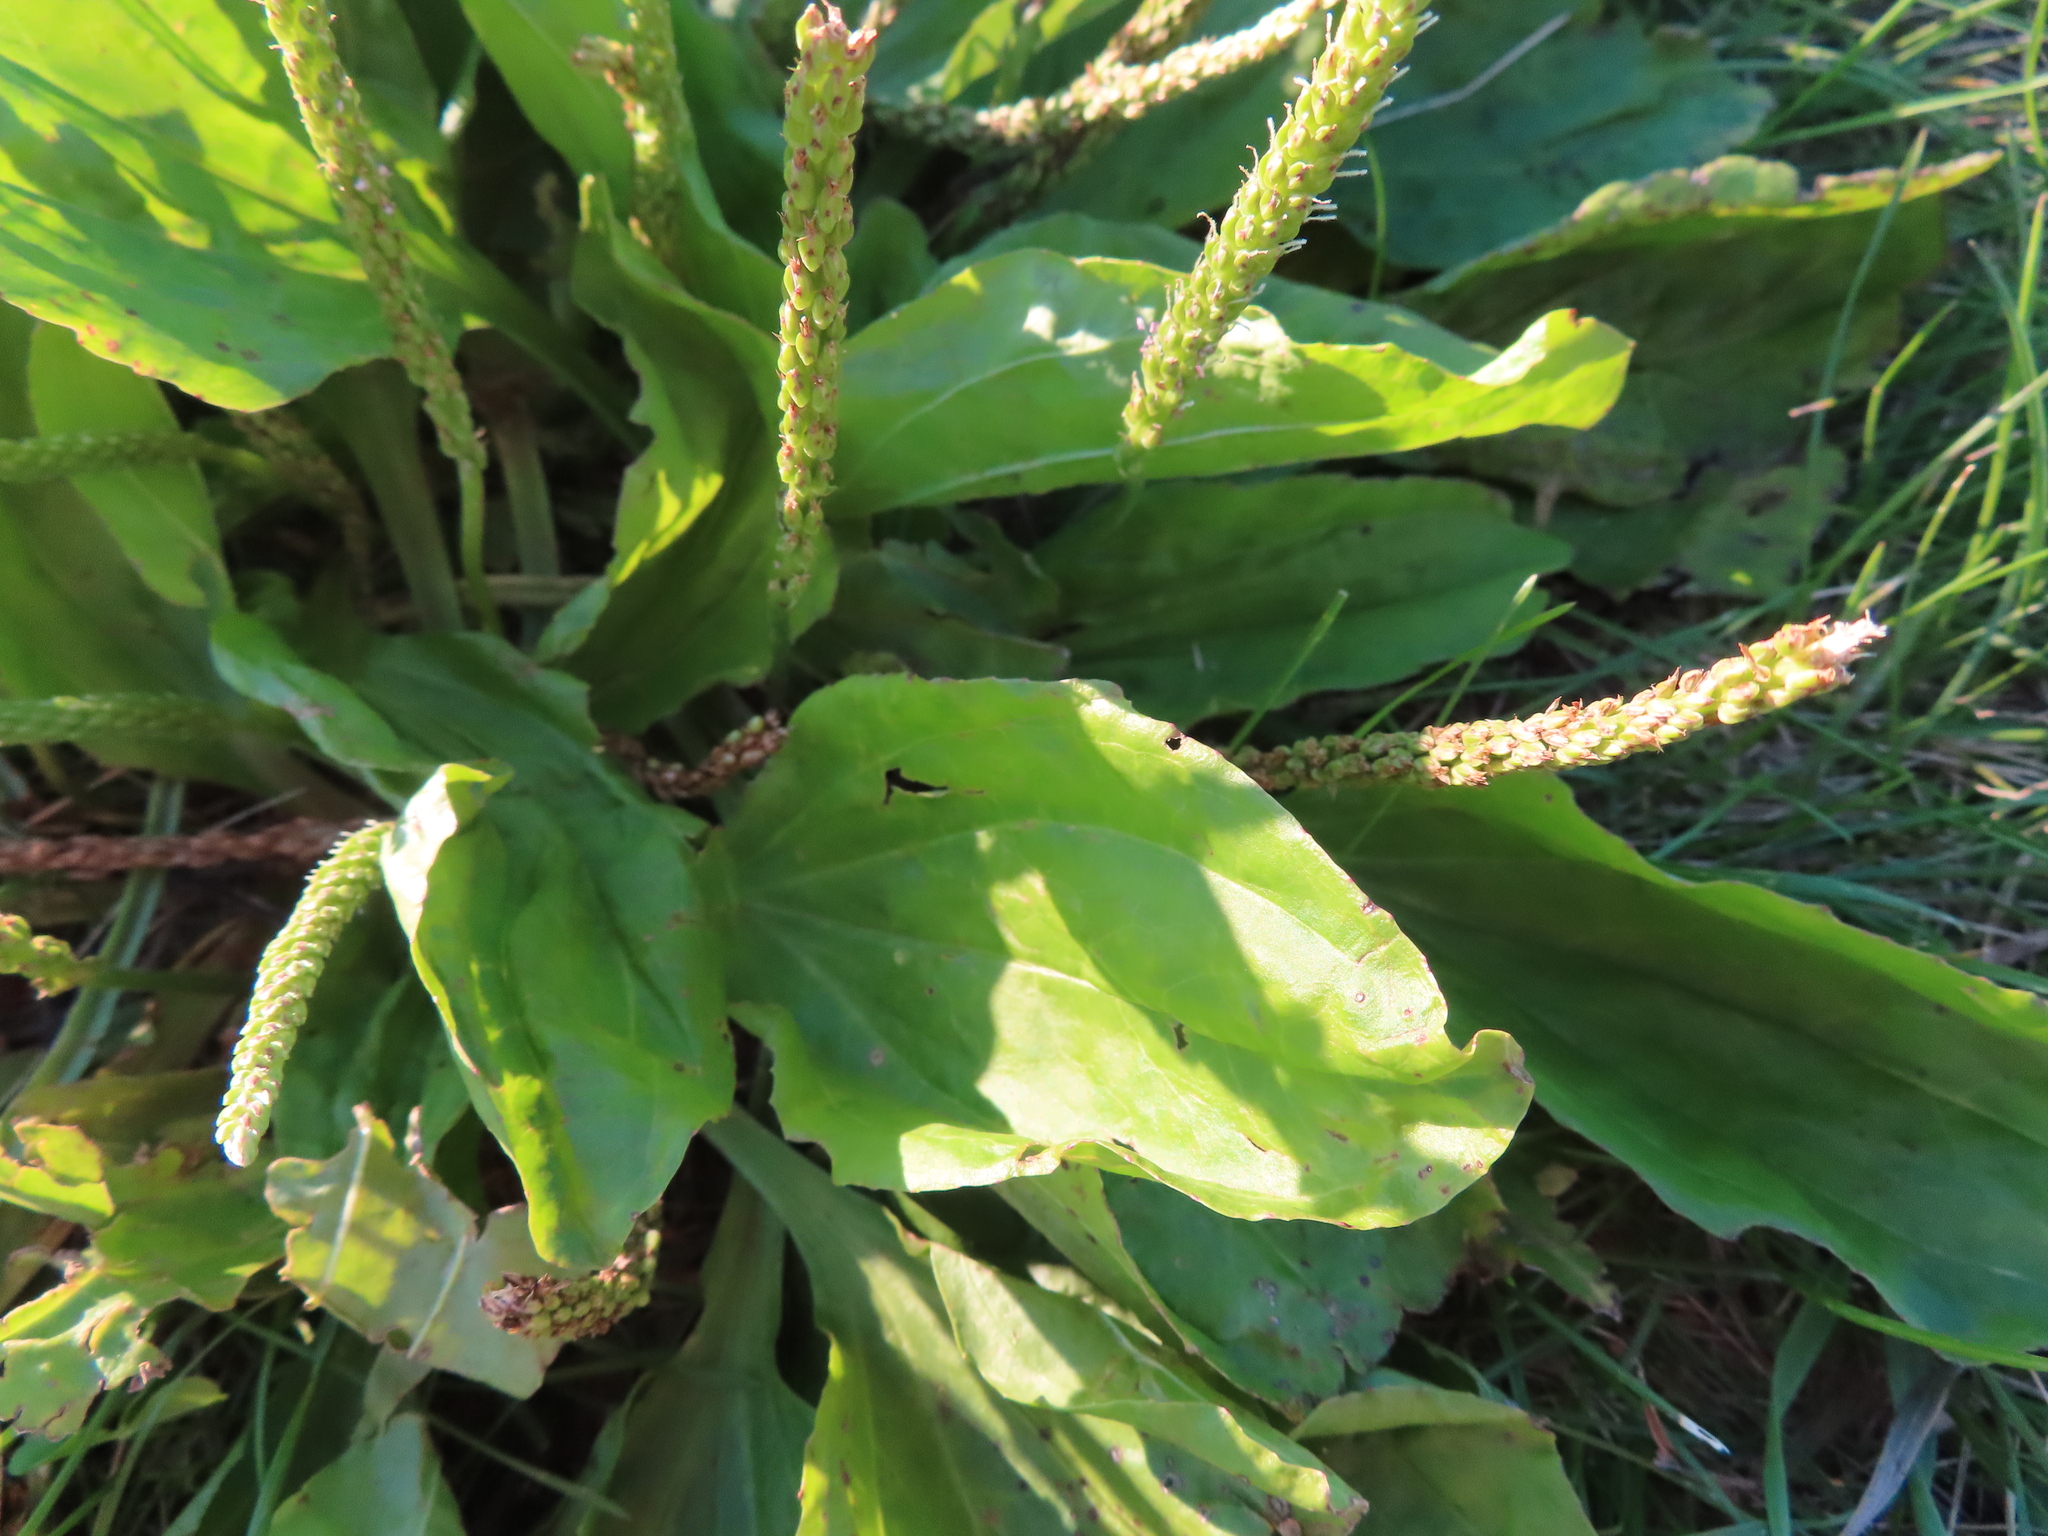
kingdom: Plantae
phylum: Tracheophyta
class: Magnoliopsida
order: Lamiales
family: Plantaginaceae
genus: Plantago
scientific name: Plantago rugelii
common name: American plantain
